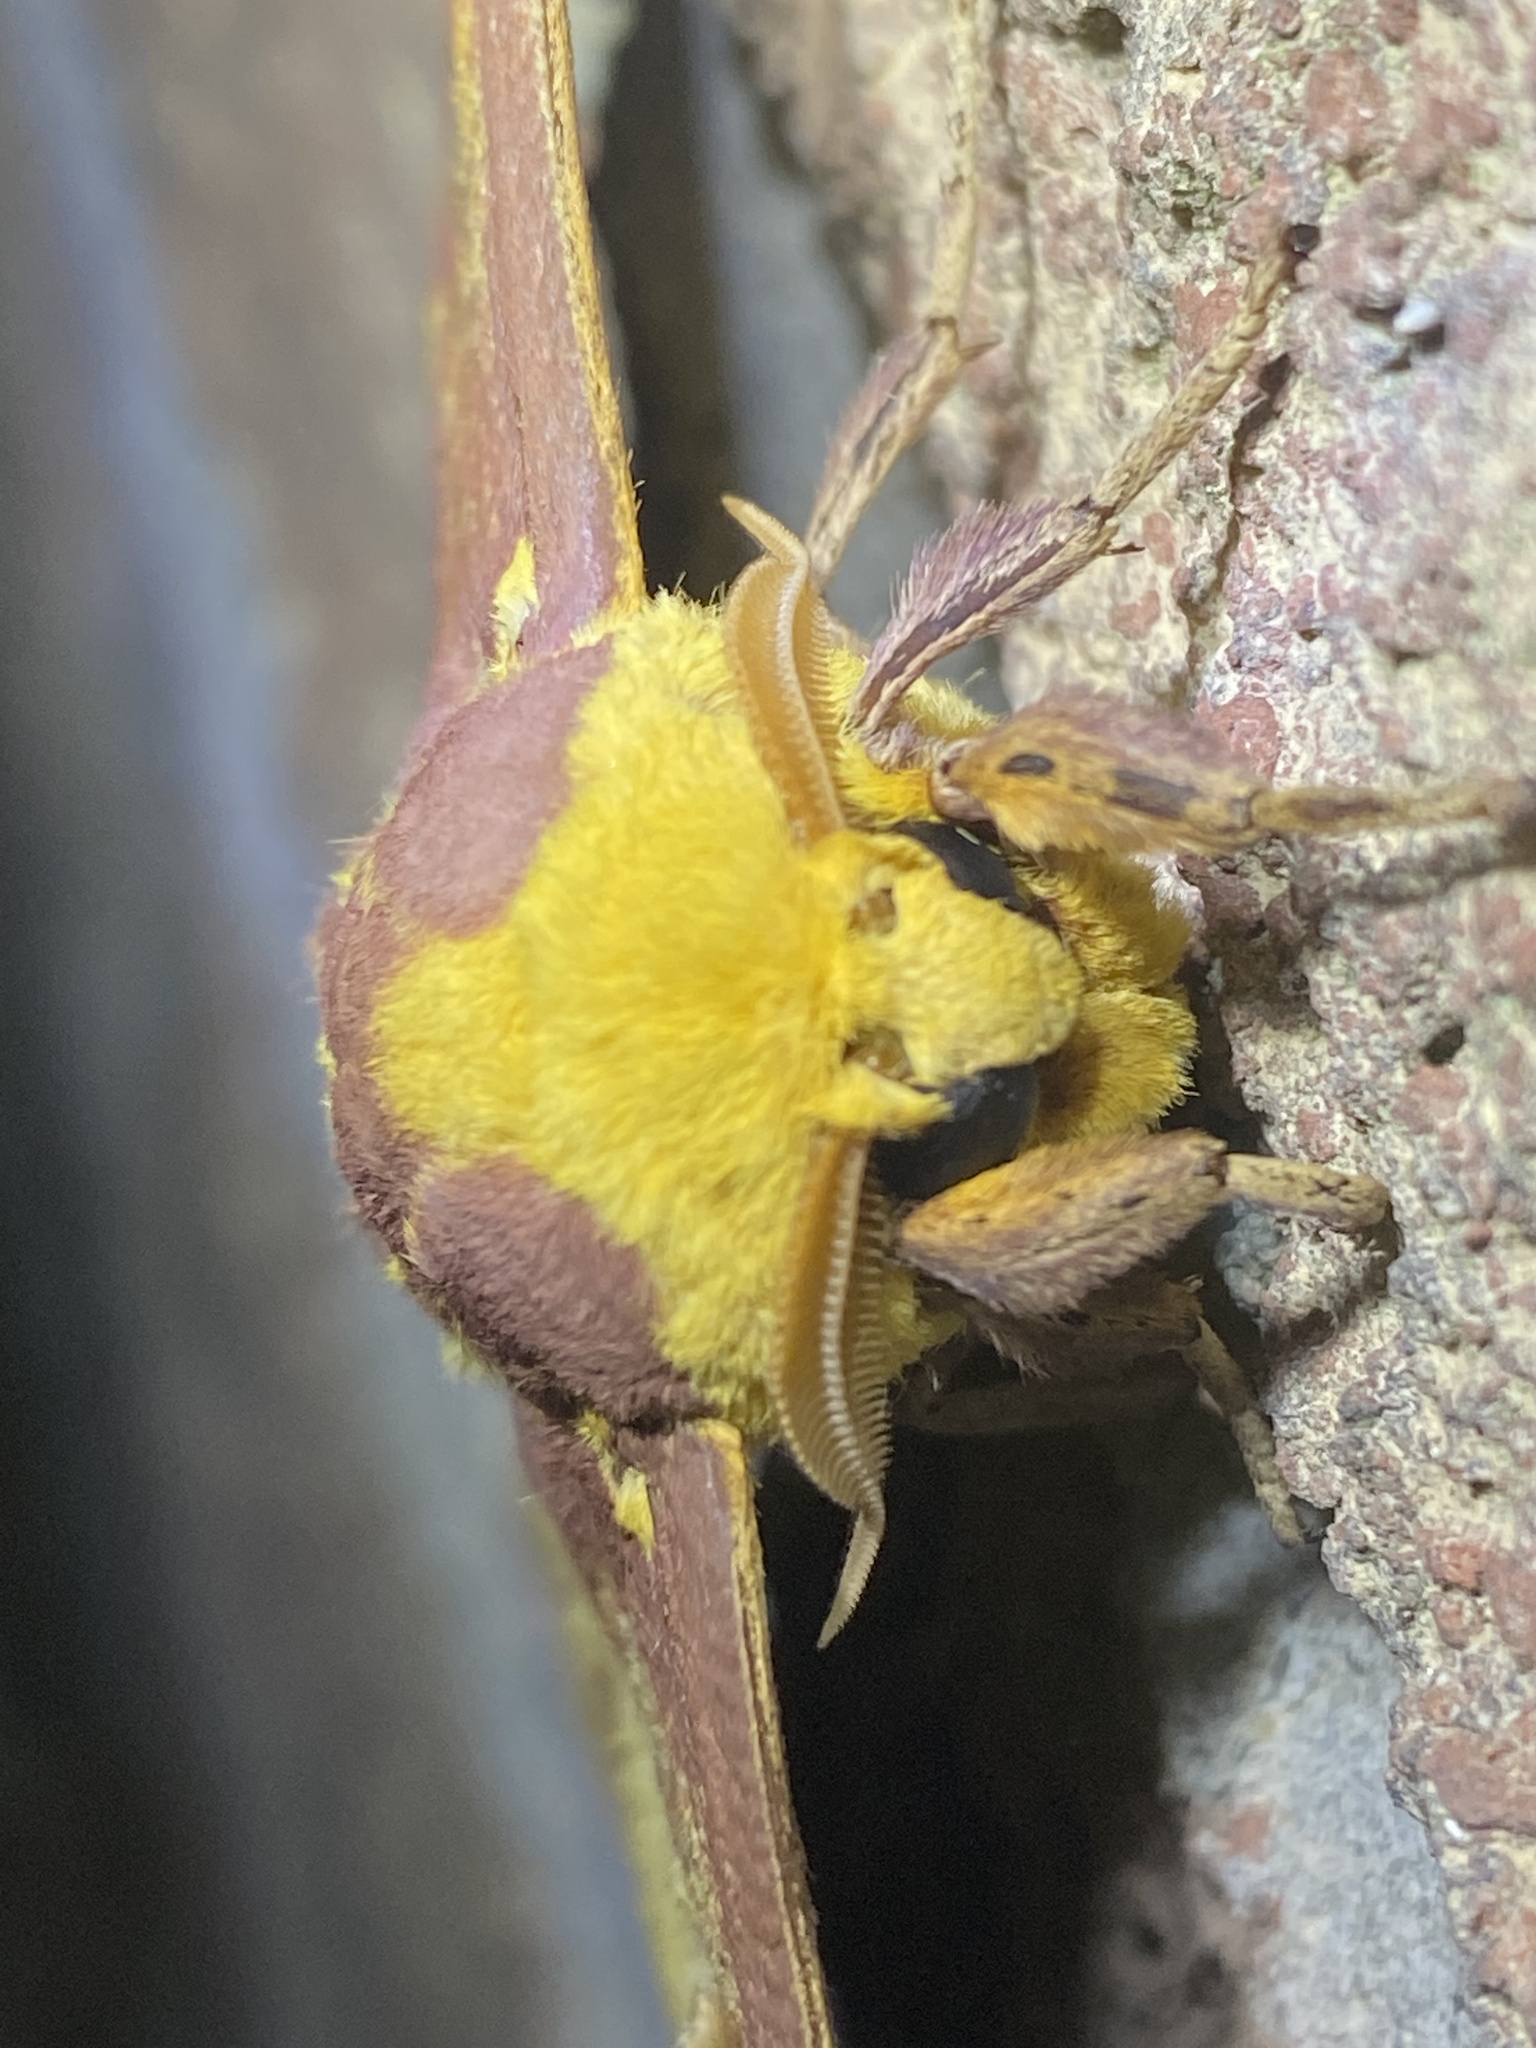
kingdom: Animalia
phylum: Arthropoda
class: Insecta
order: Lepidoptera
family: Saturniidae
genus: Eacles
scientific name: Eacles imperialis
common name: Imperial moth
